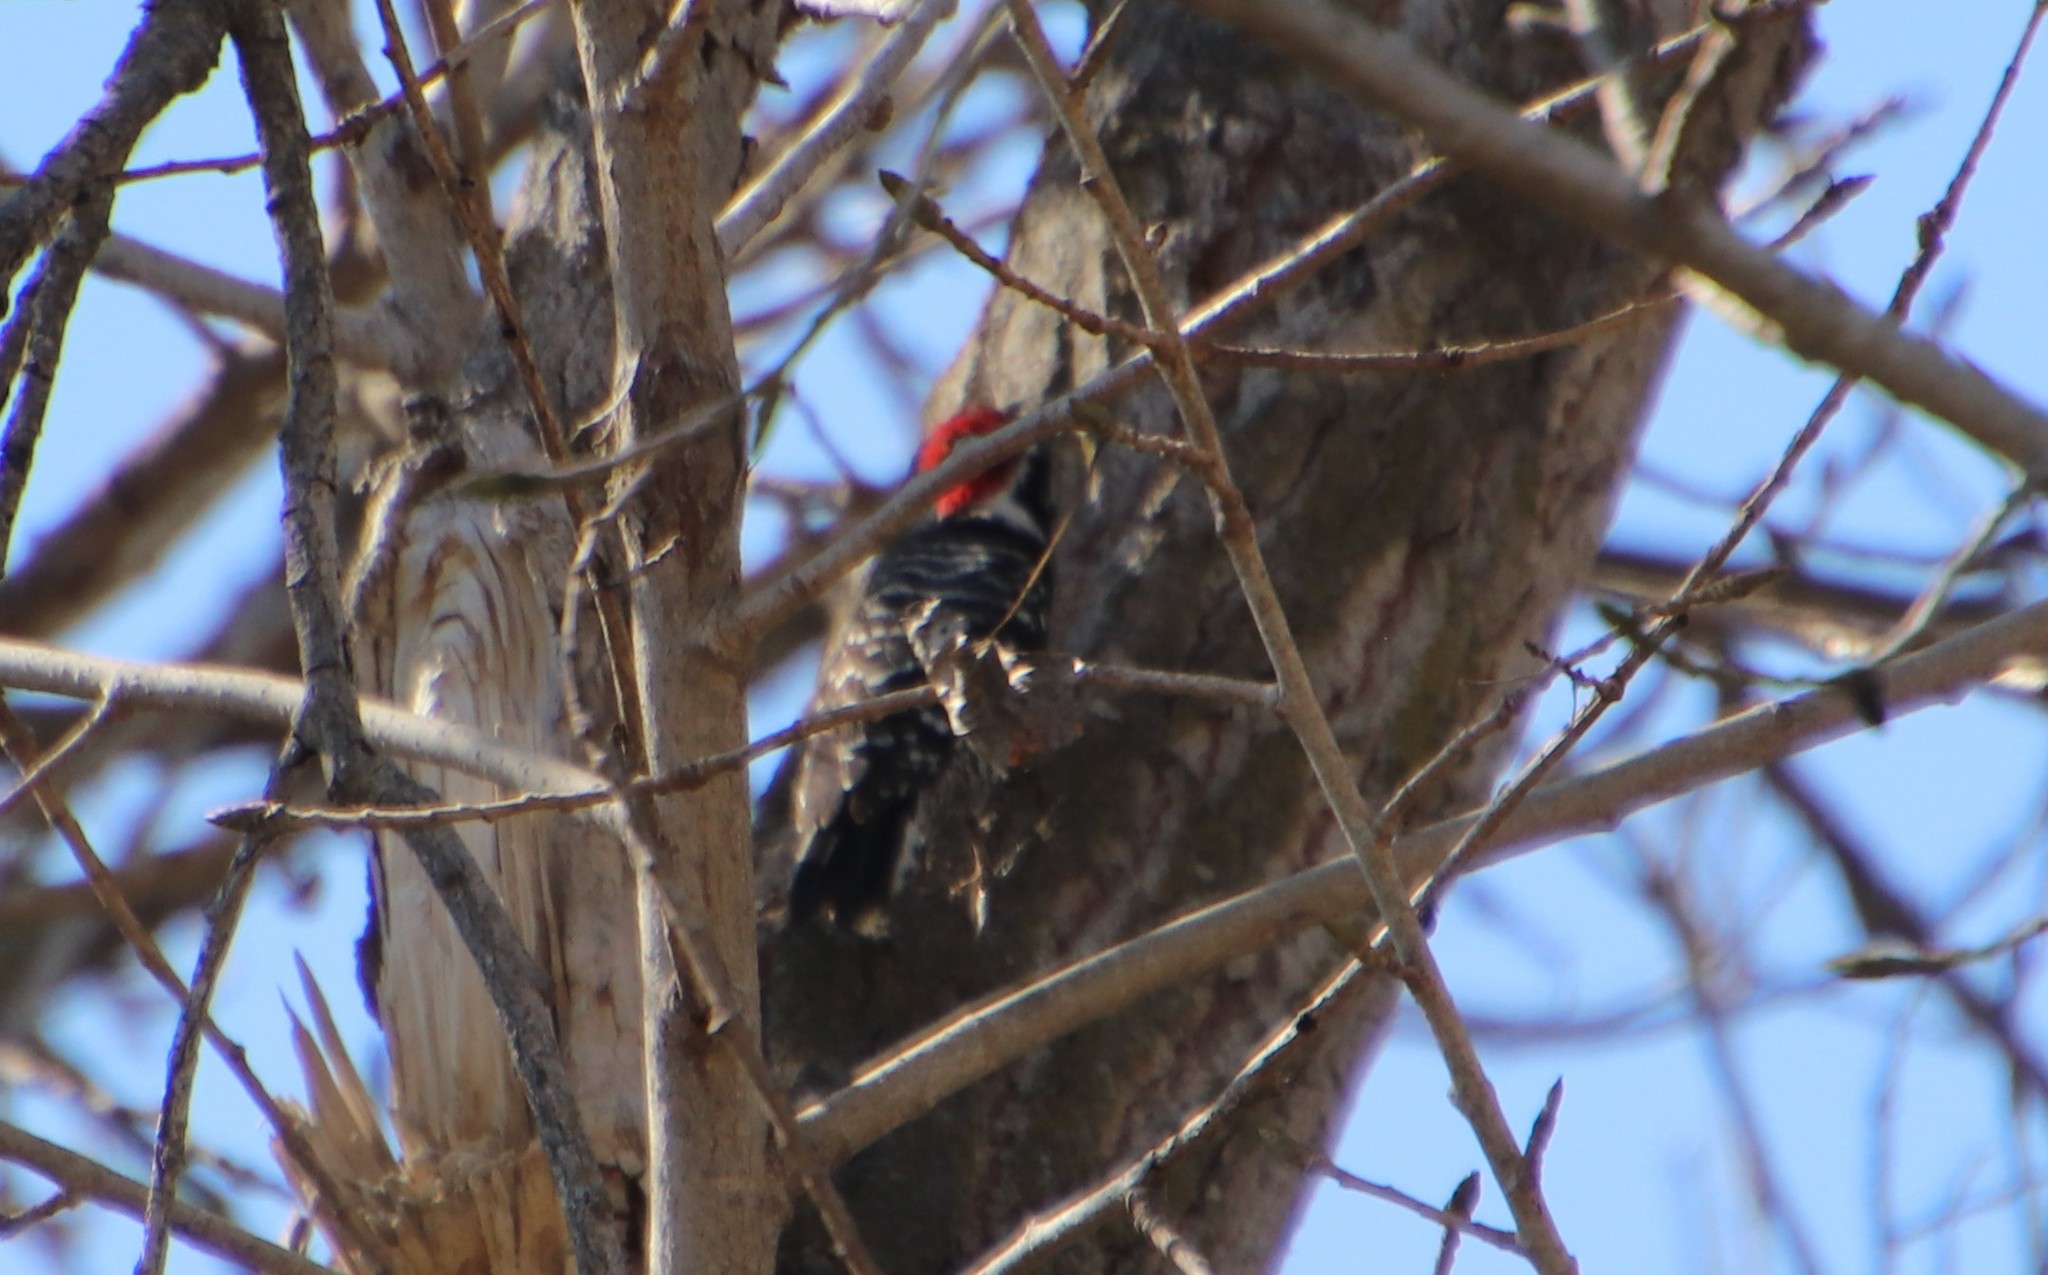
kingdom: Animalia
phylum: Chordata
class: Aves
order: Piciformes
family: Picidae
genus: Dryobates
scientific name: Dryobates nuttallii
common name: Nuttall's woodpecker
